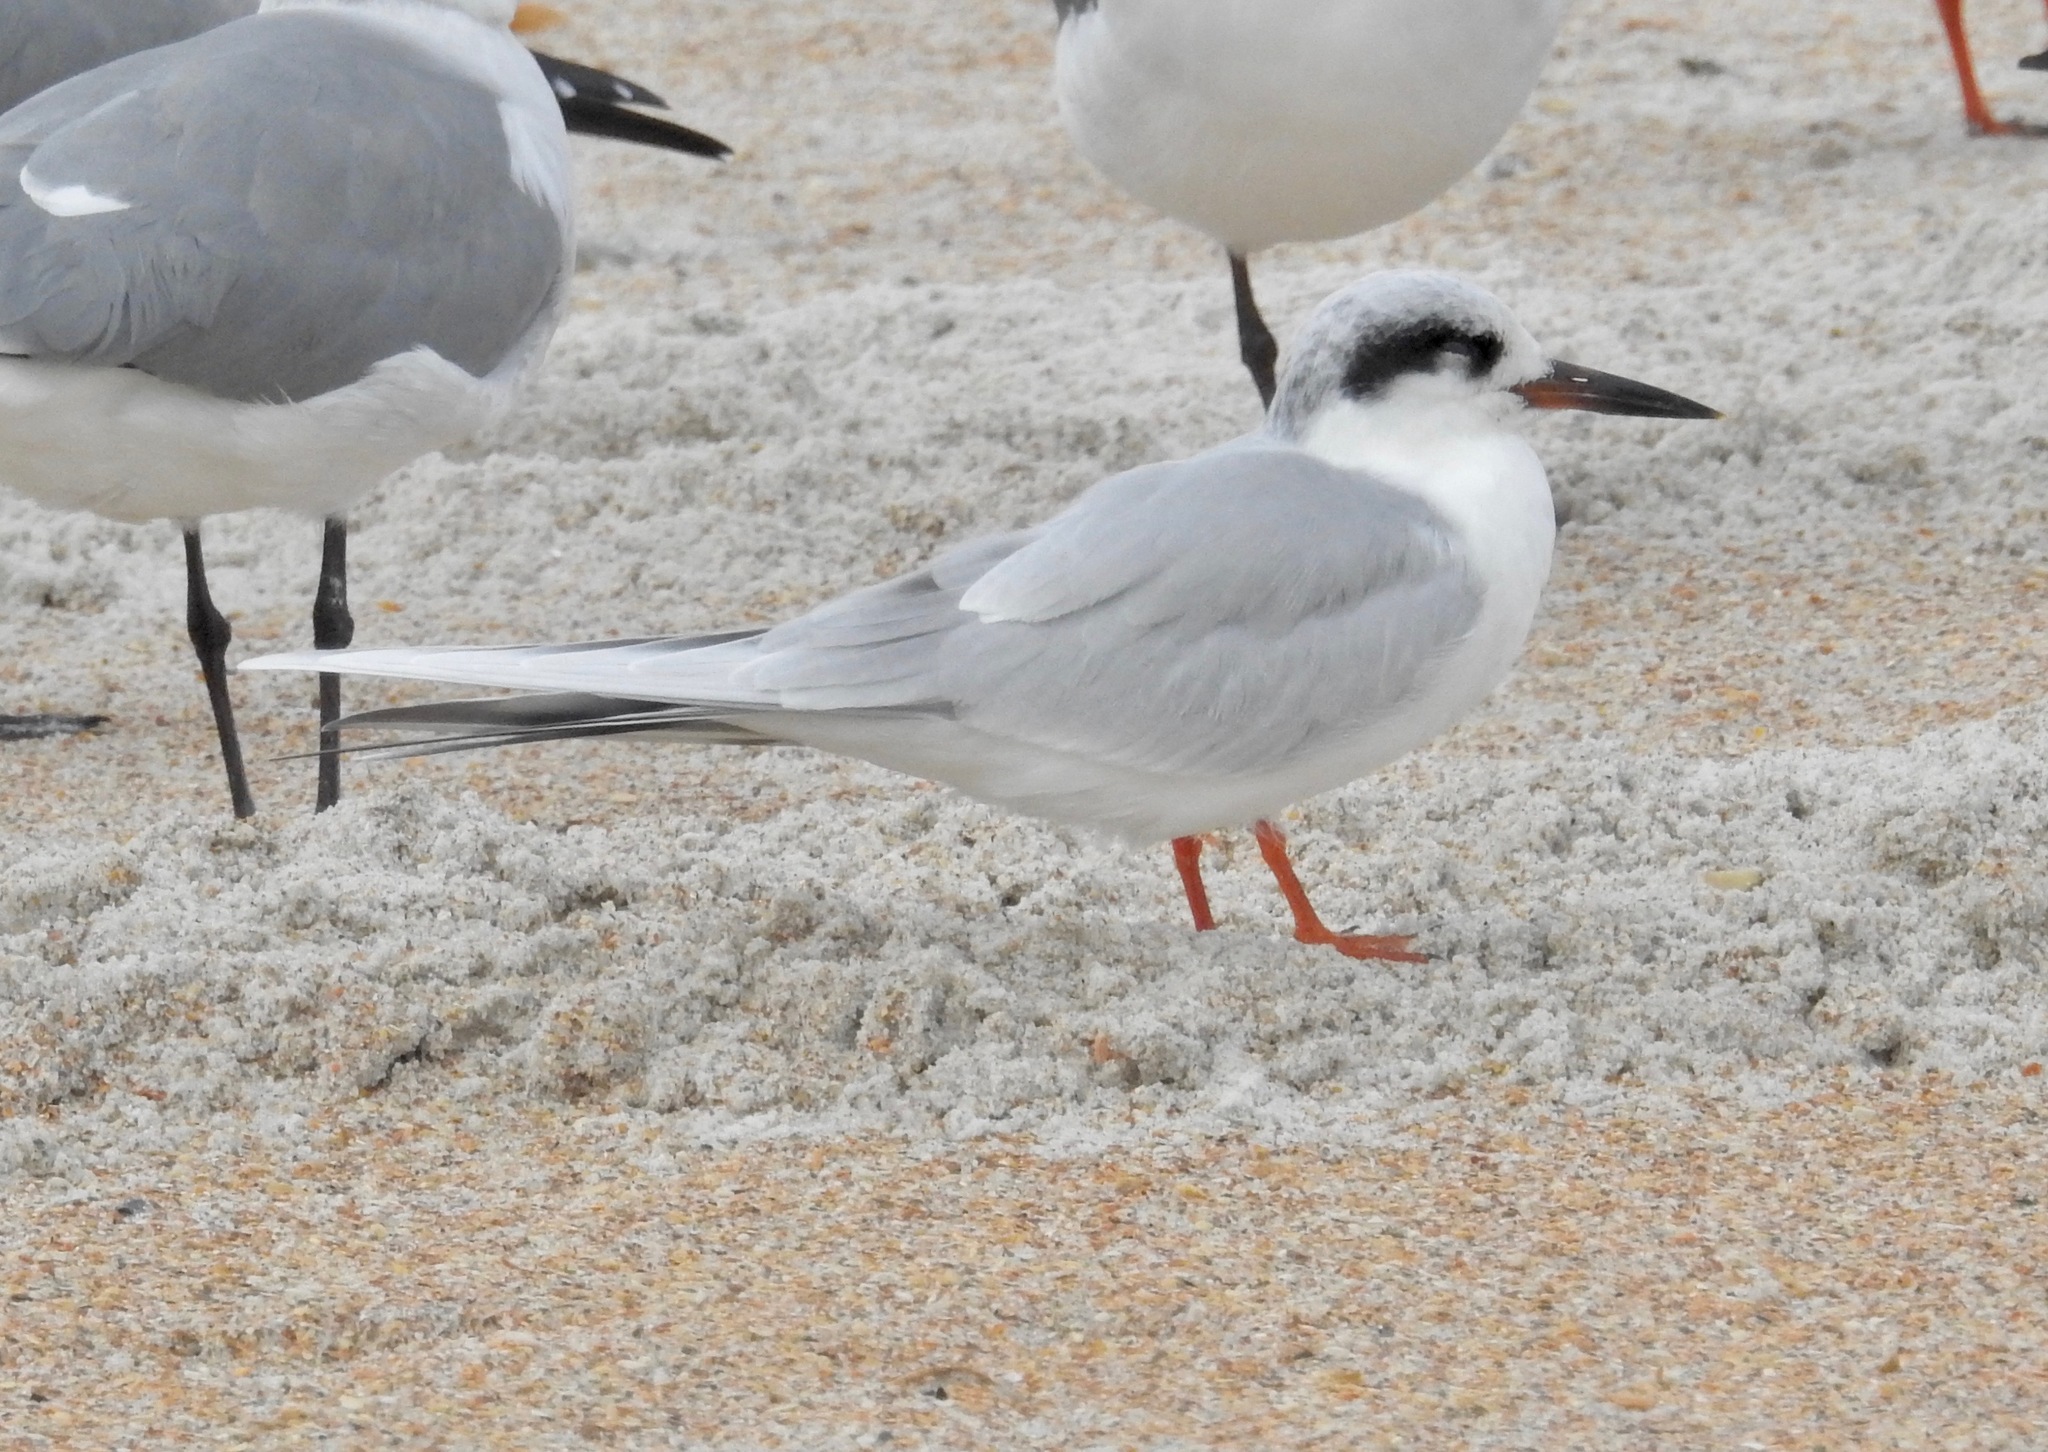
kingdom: Animalia
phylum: Chordata
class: Aves
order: Charadriiformes
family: Laridae
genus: Sterna
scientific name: Sterna forsteri
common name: Forster's tern
